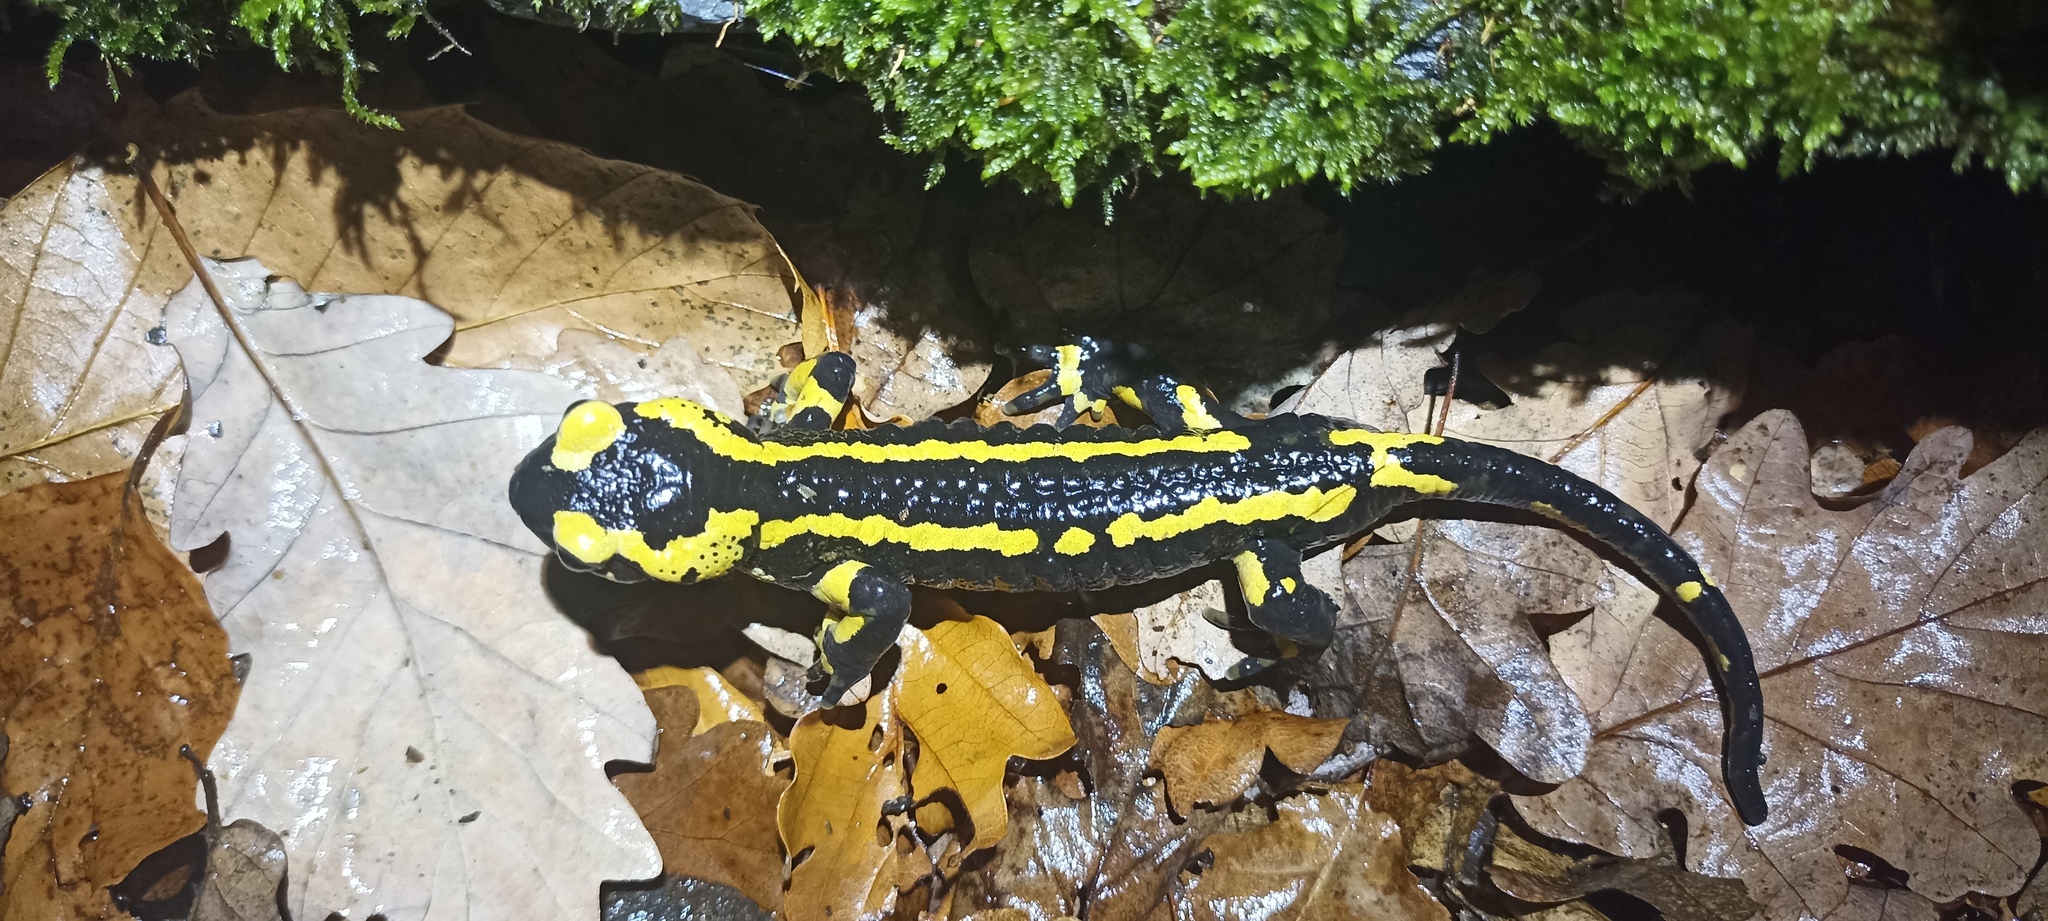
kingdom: Animalia
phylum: Chordata
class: Amphibia
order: Caudata
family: Salamandridae
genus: Salamandra
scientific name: Salamandra salamandra
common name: Fire salamander
